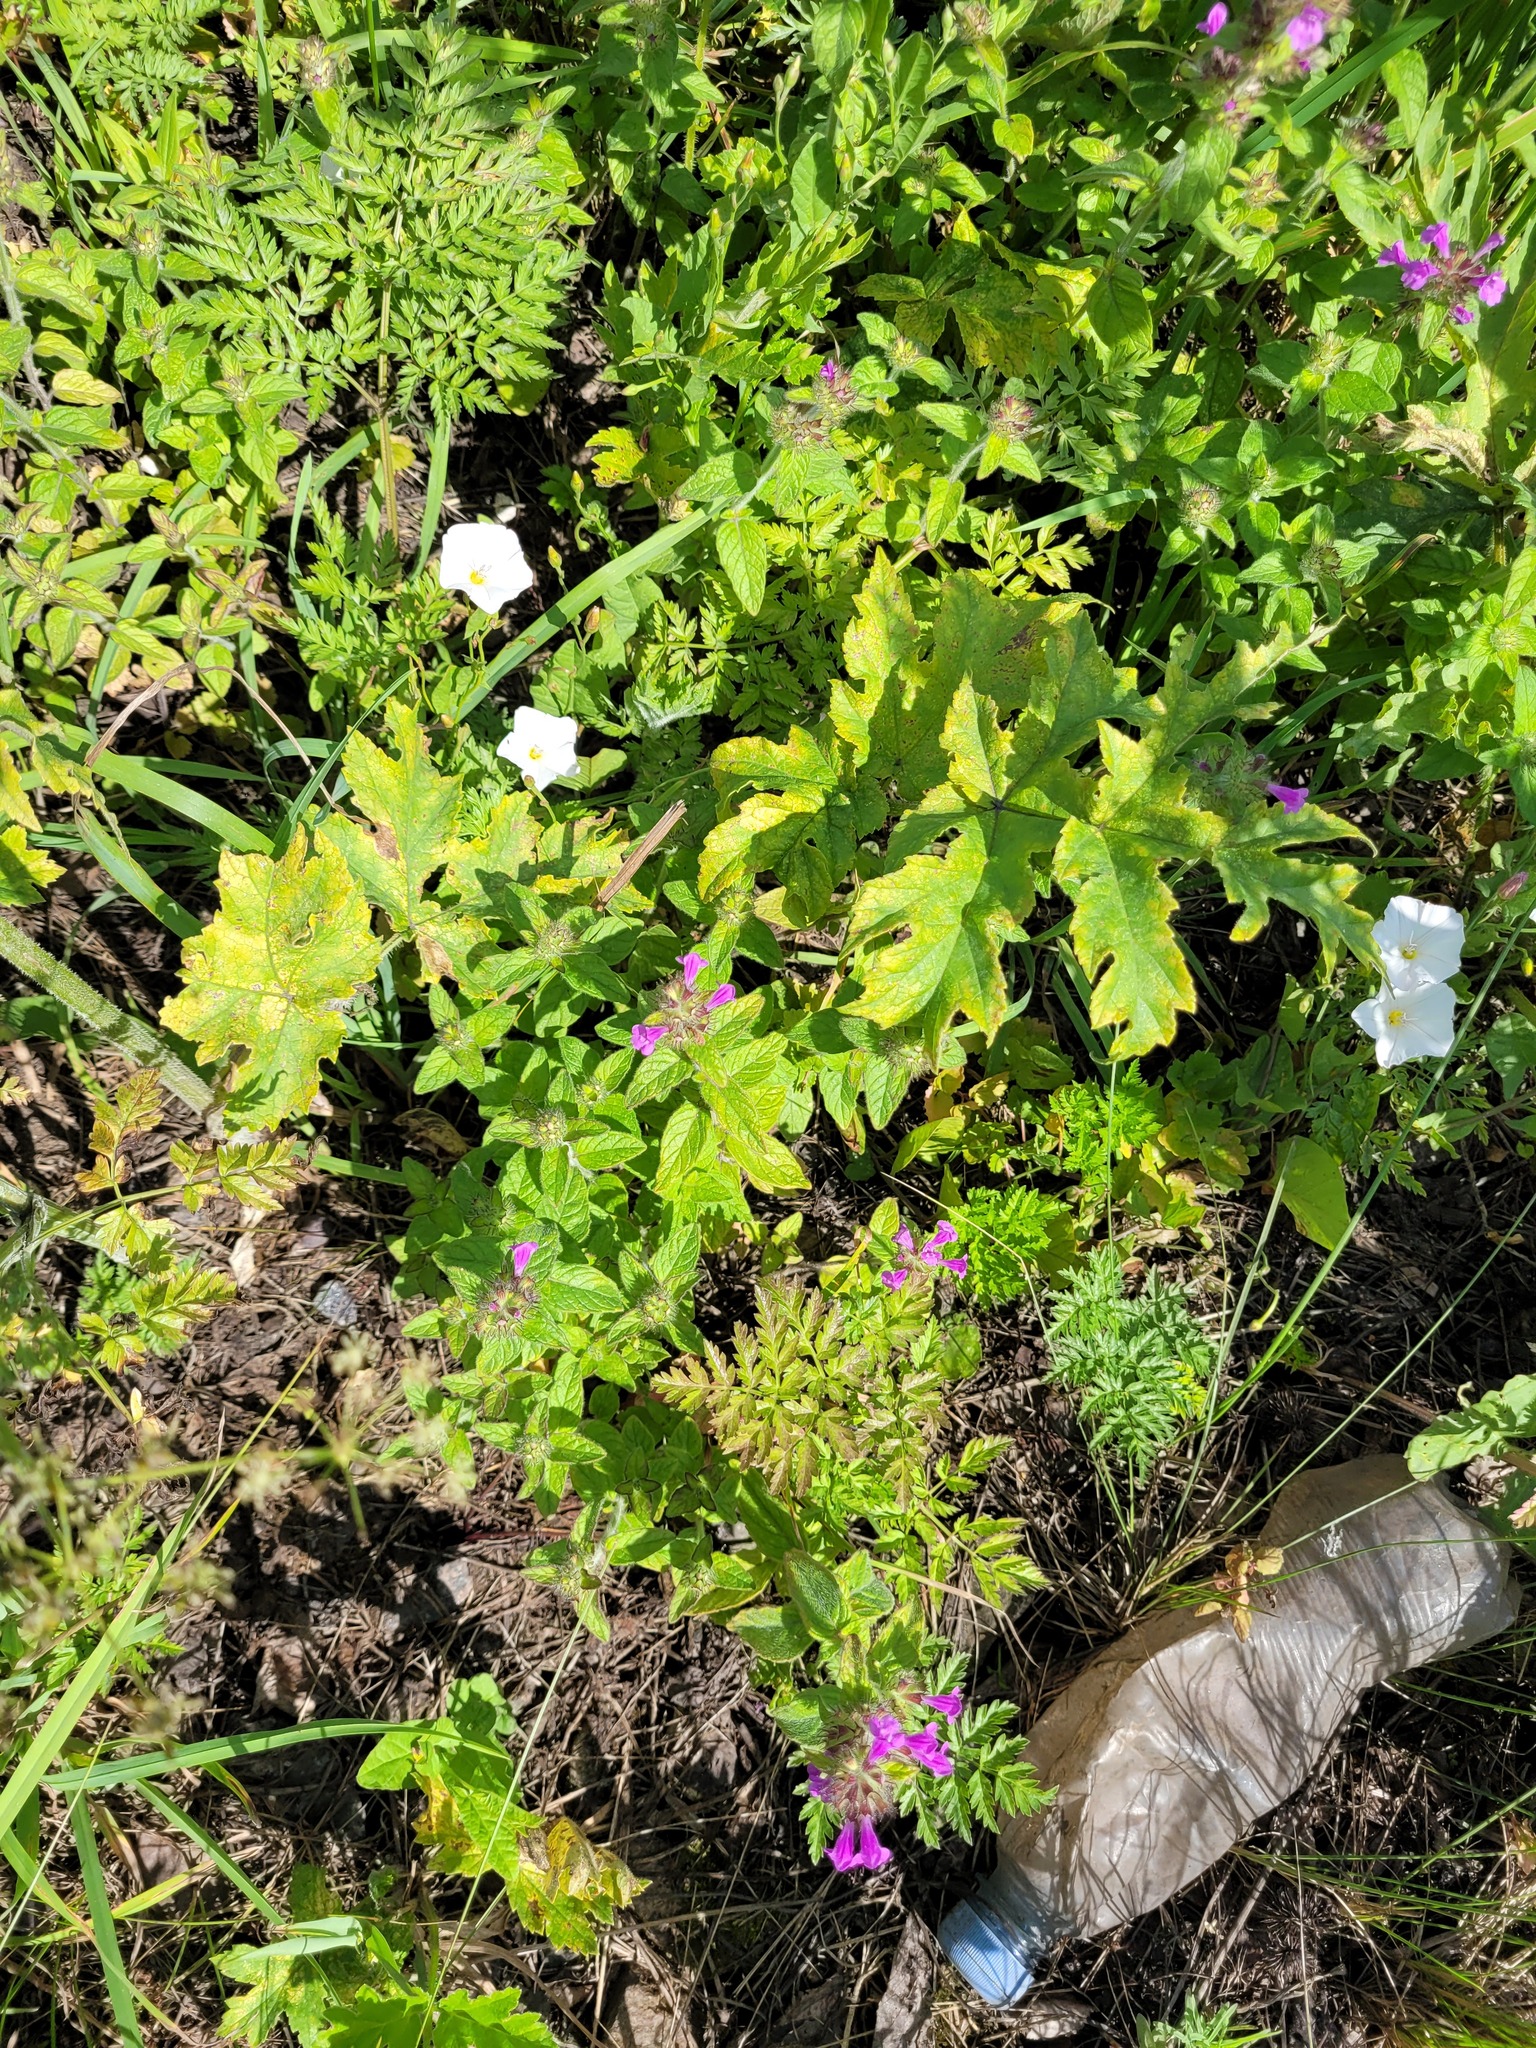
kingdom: Plantae
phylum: Tracheophyta
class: Magnoliopsida
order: Lamiales
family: Lamiaceae
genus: Clinopodium
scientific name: Clinopodium vulgare
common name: Wild basil
